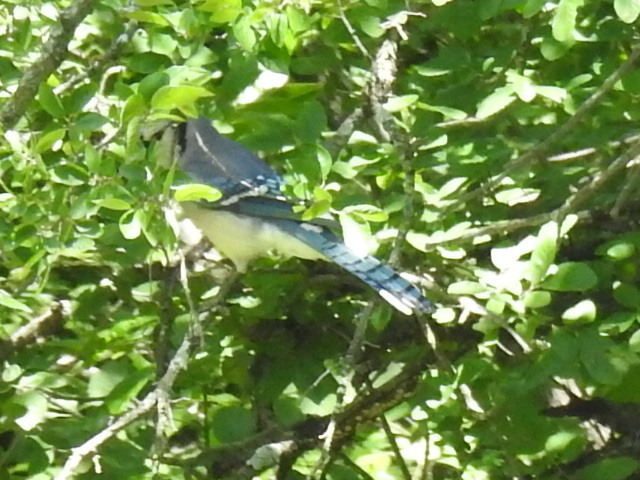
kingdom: Animalia
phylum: Chordata
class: Aves
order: Passeriformes
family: Corvidae
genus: Cyanocitta
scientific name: Cyanocitta cristata
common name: Blue jay
